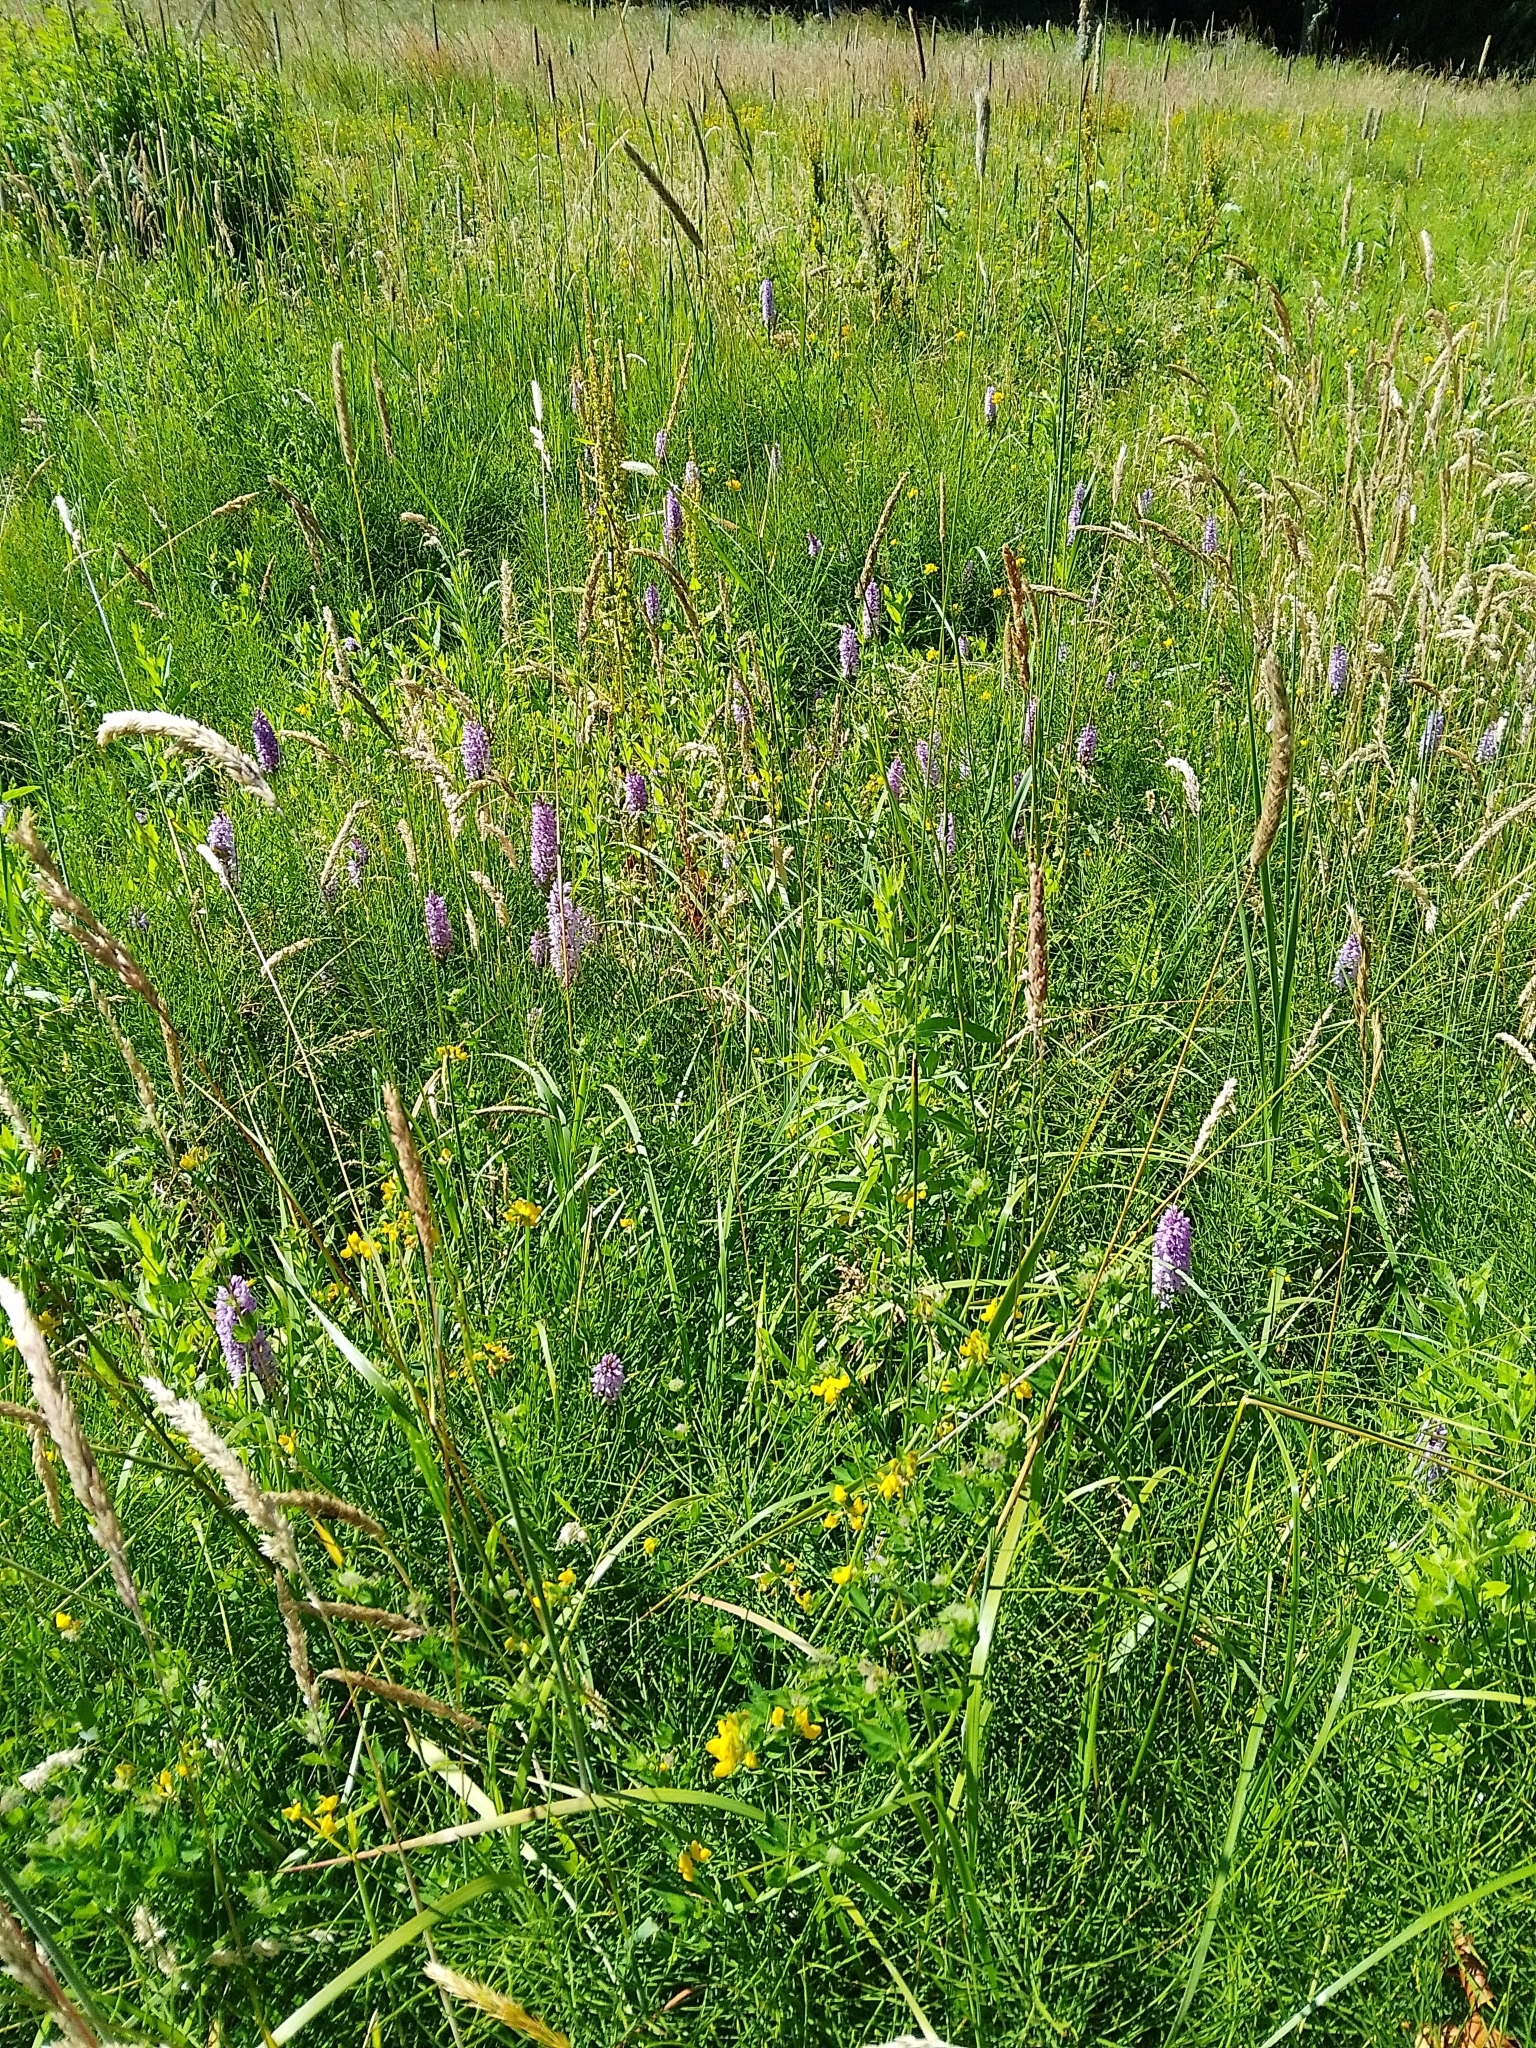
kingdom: Plantae
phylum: Tracheophyta
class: Liliopsida
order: Asparagales
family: Orchidaceae
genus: Dactylorhiza
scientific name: Dactylorhiza maculata
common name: Heath spotted-orchid
